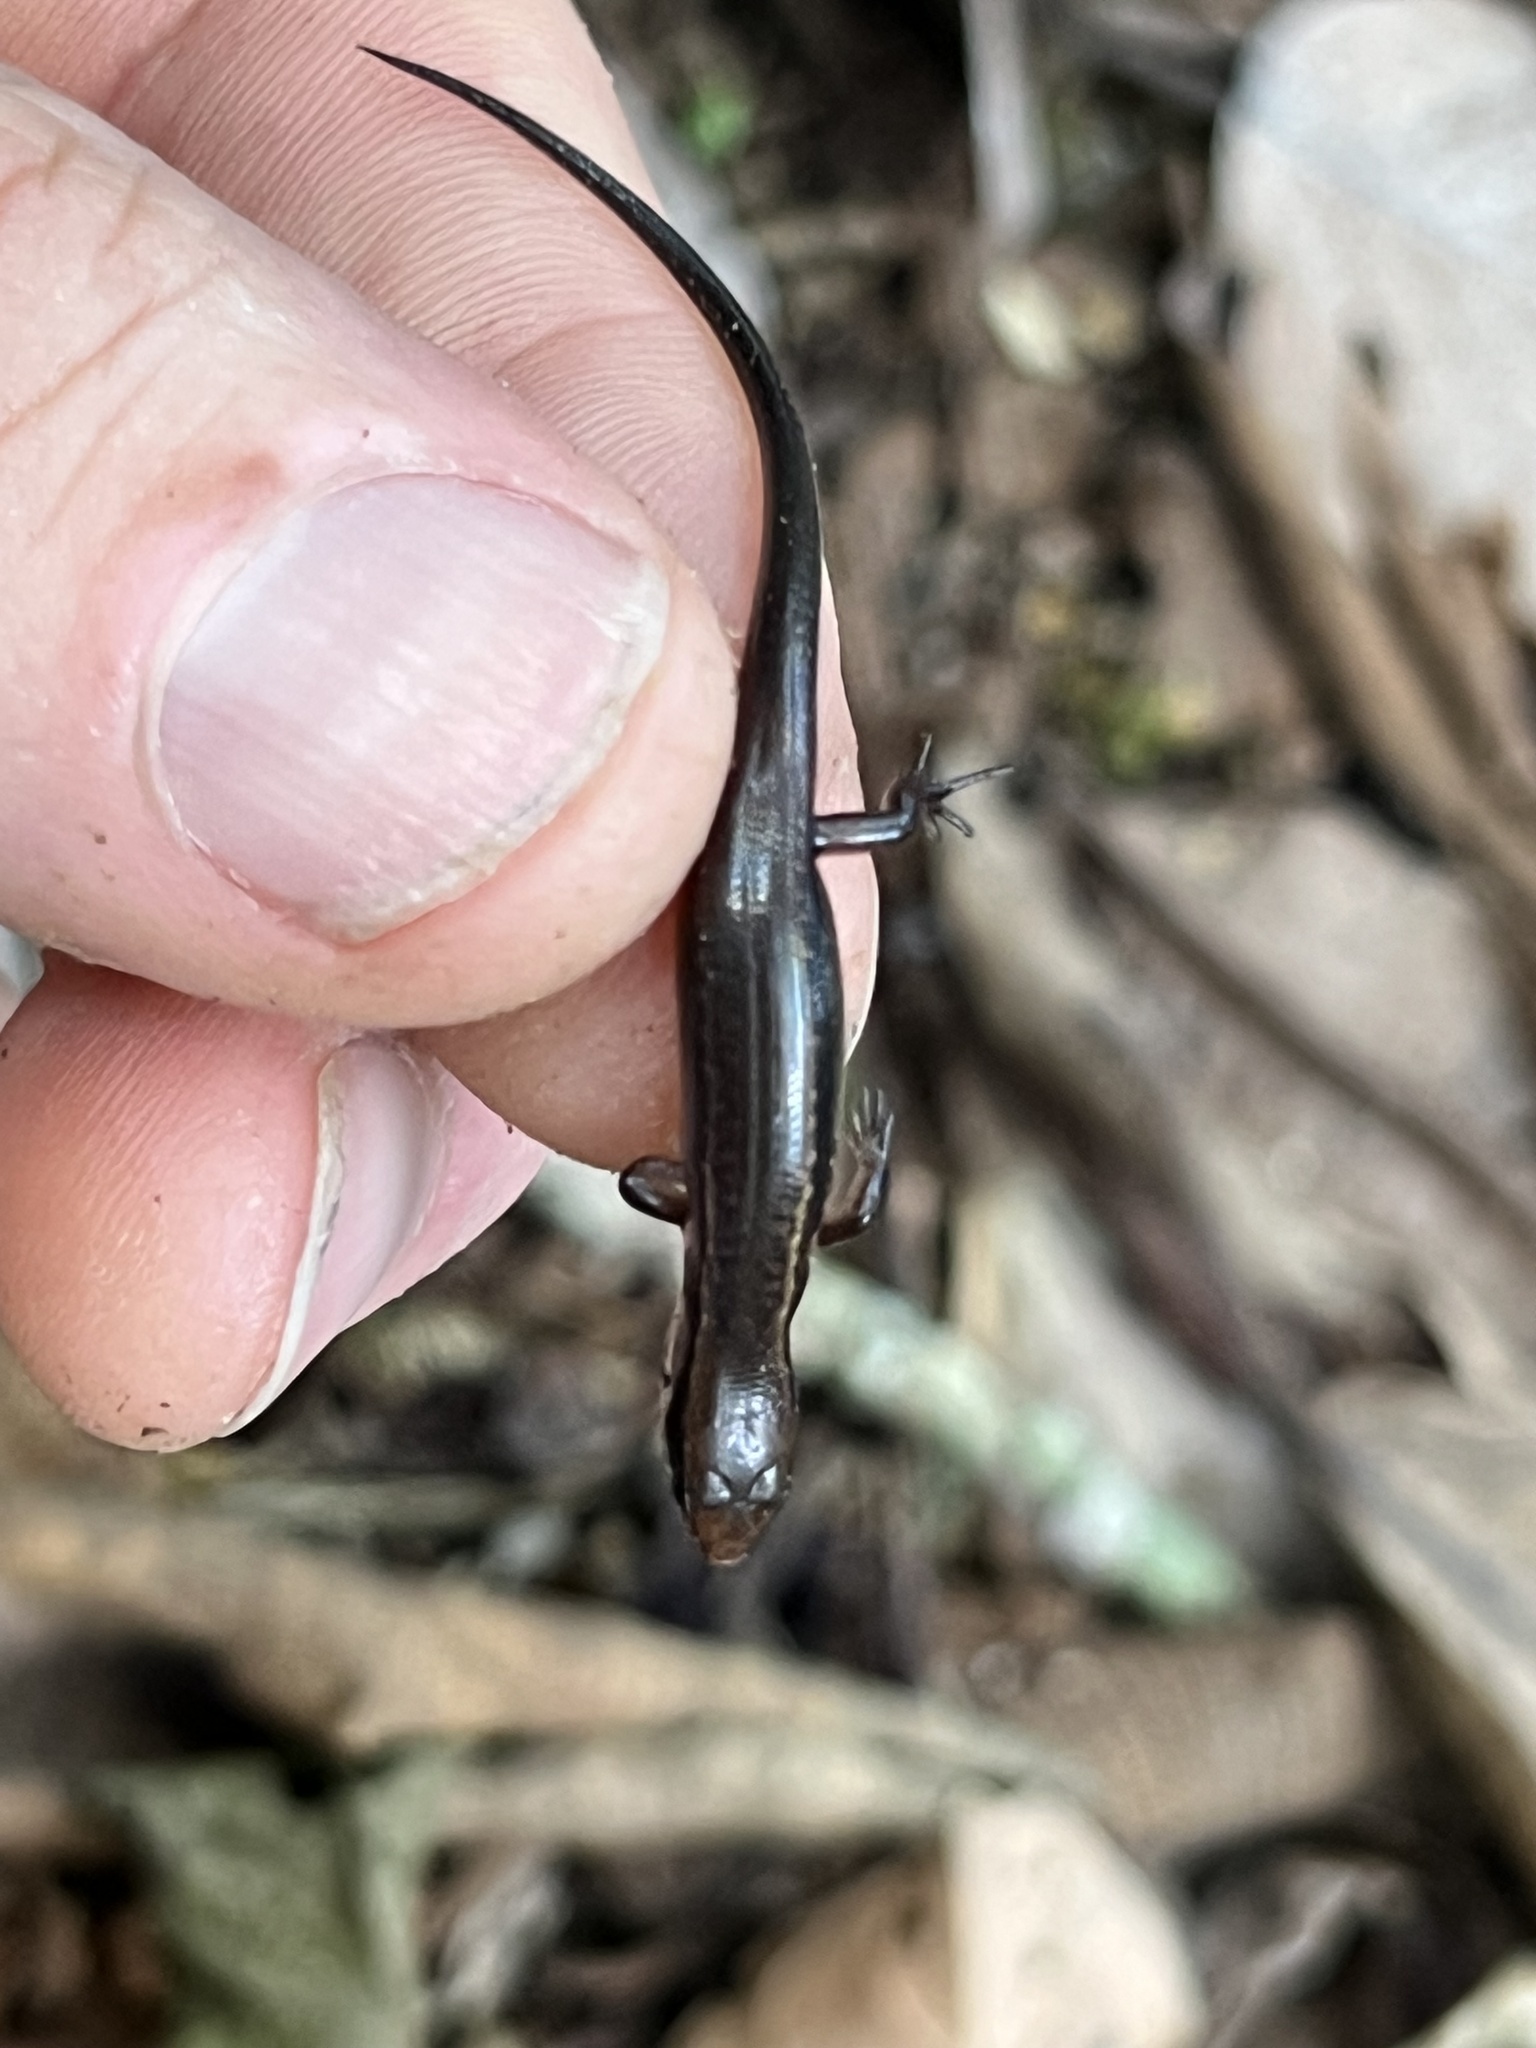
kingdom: Animalia
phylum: Chordata
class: Squamata
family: Scincidae
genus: Scincella
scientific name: Scincella cherriei
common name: Brown forest skink
